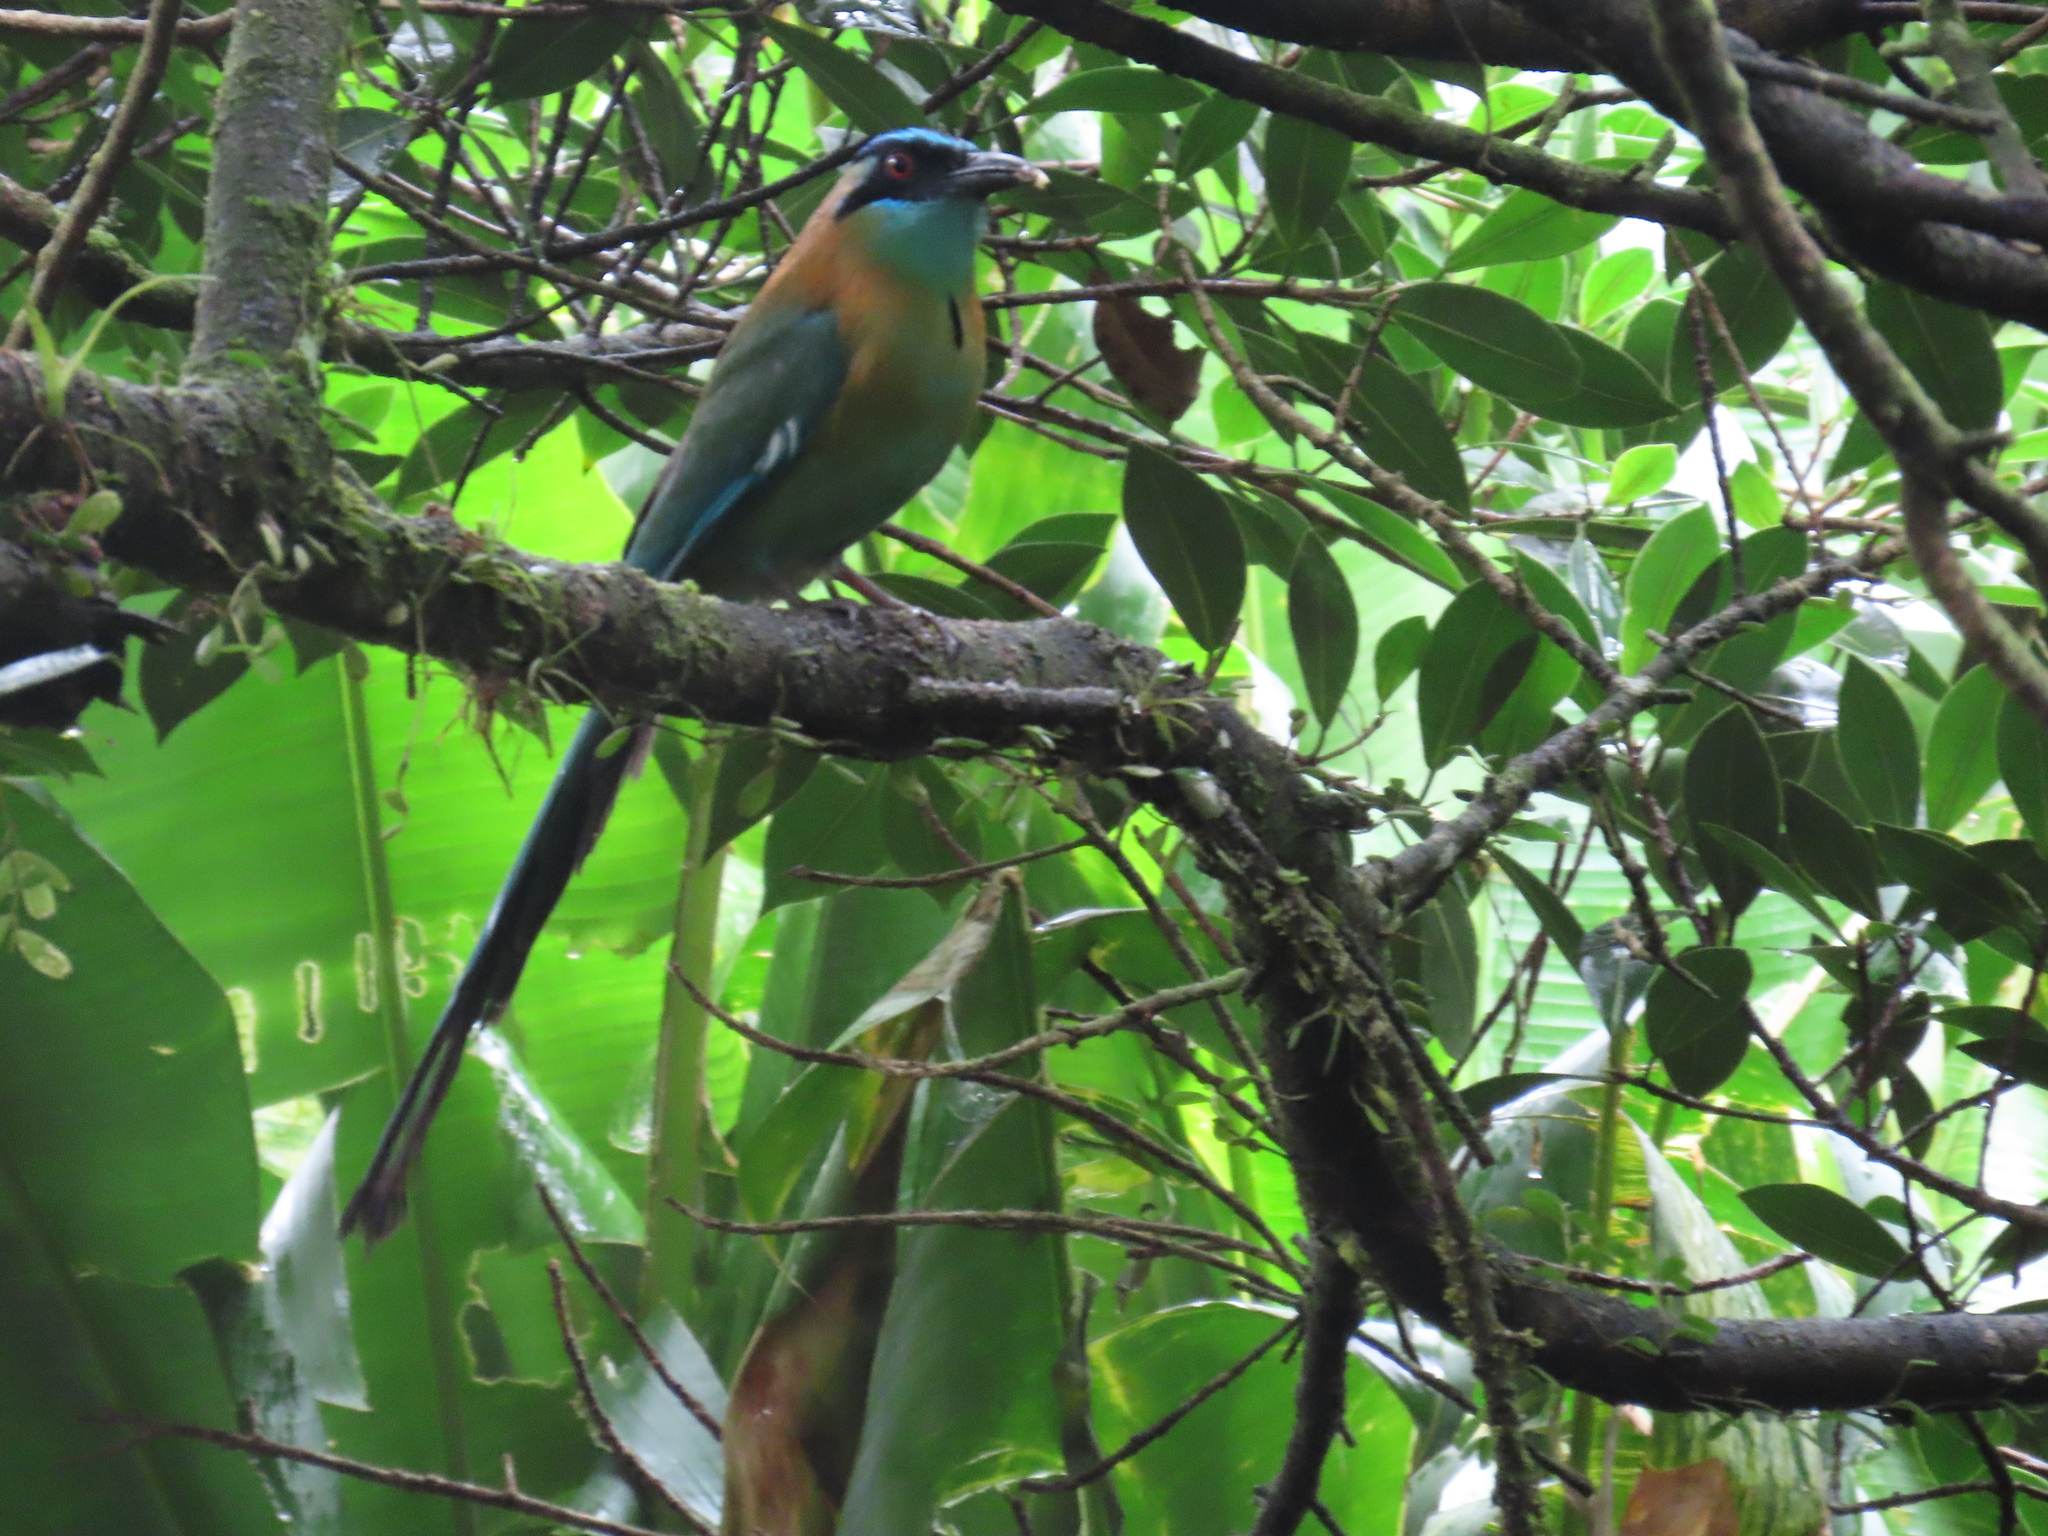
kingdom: Animalia
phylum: Chordata
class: Aves
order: Coraciiformes
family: Momotidae
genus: Momotus
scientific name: Momotus lessonii
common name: Lesson's motmot
